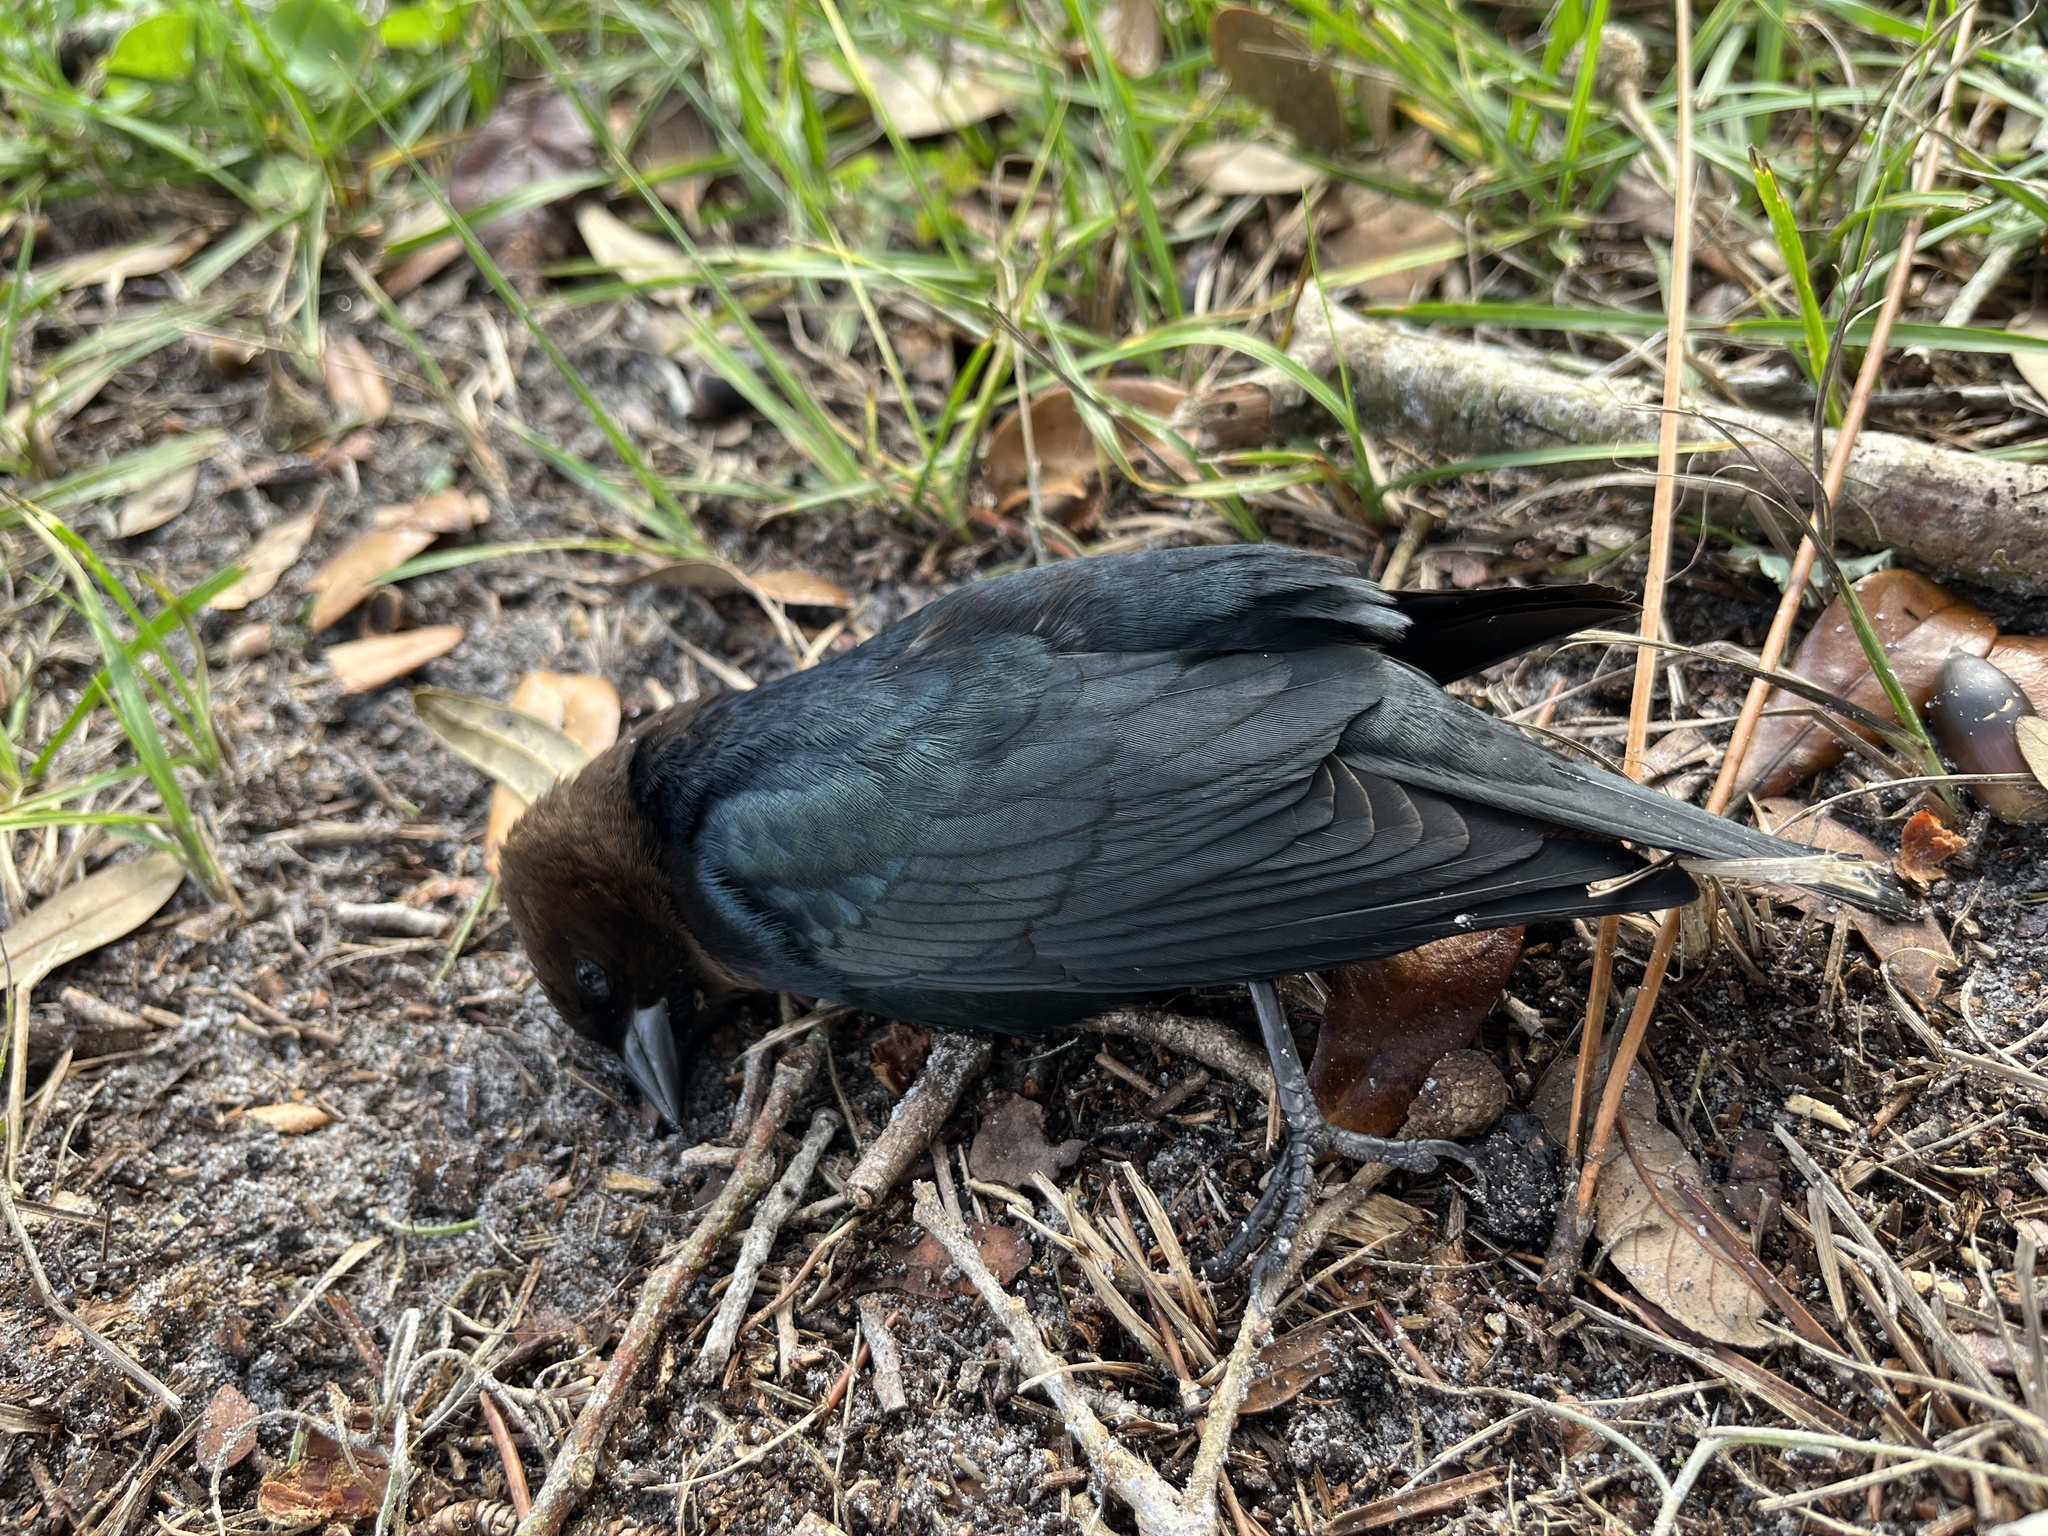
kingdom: Animalia
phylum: Chordata
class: Aves
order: Passeriformes
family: Icteridae
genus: Molothrus
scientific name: Molothrus ater
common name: Brown-headed cowbird
